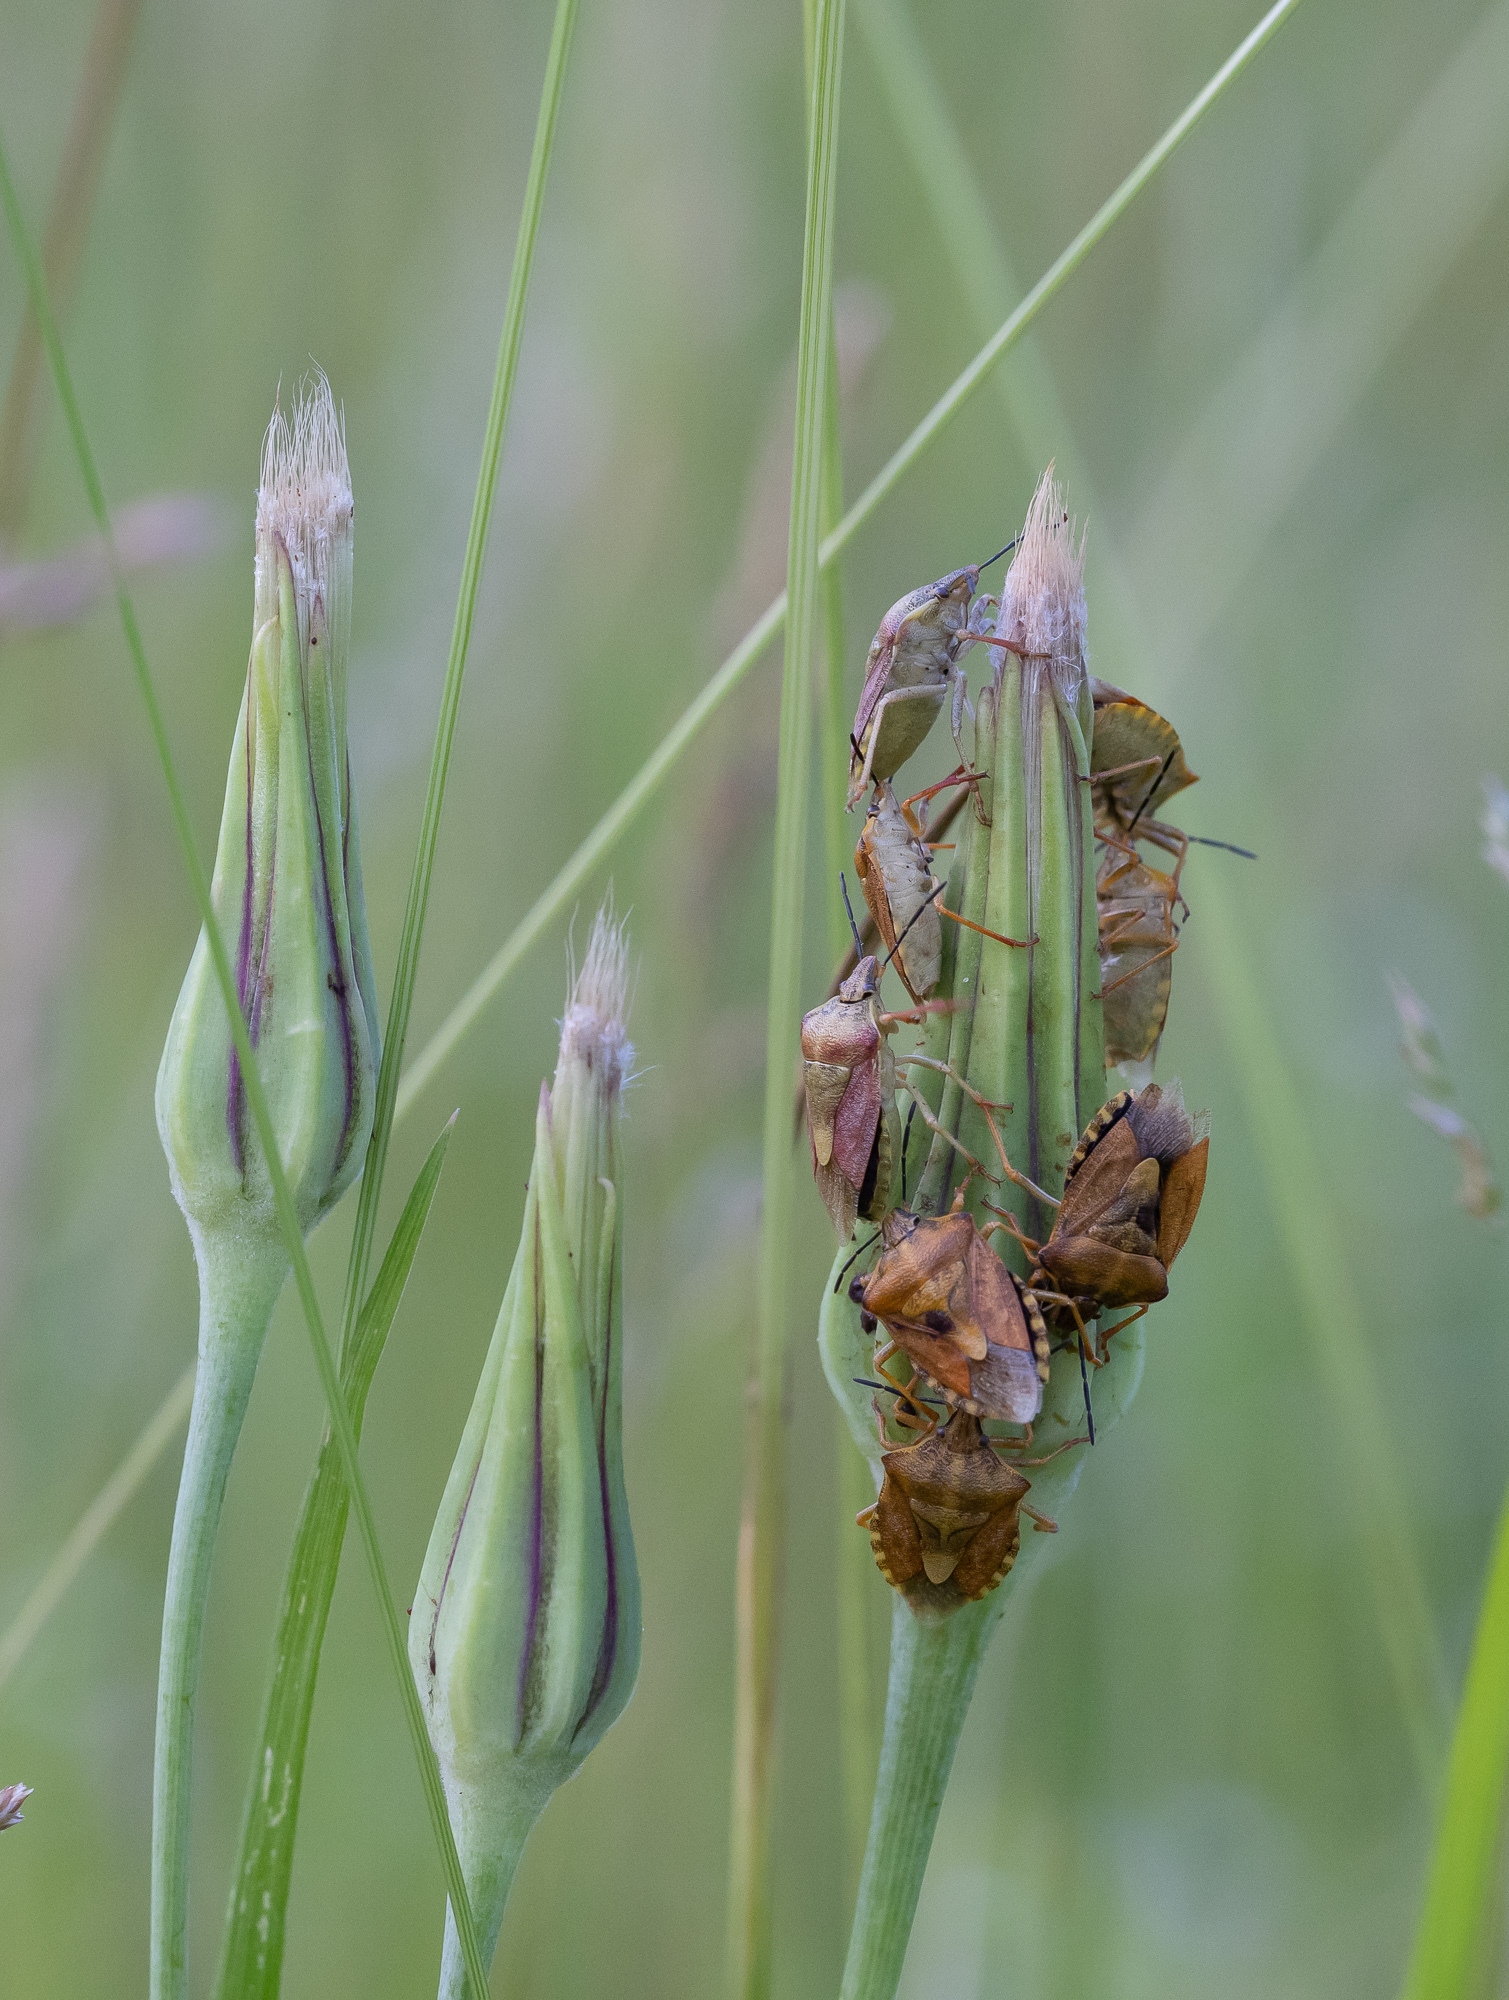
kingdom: Animalia
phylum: Arthropoda
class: Insecta
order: Hemiptera
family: Pentatomidae
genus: Carpocoris
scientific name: Carpocoris purpureipennis
